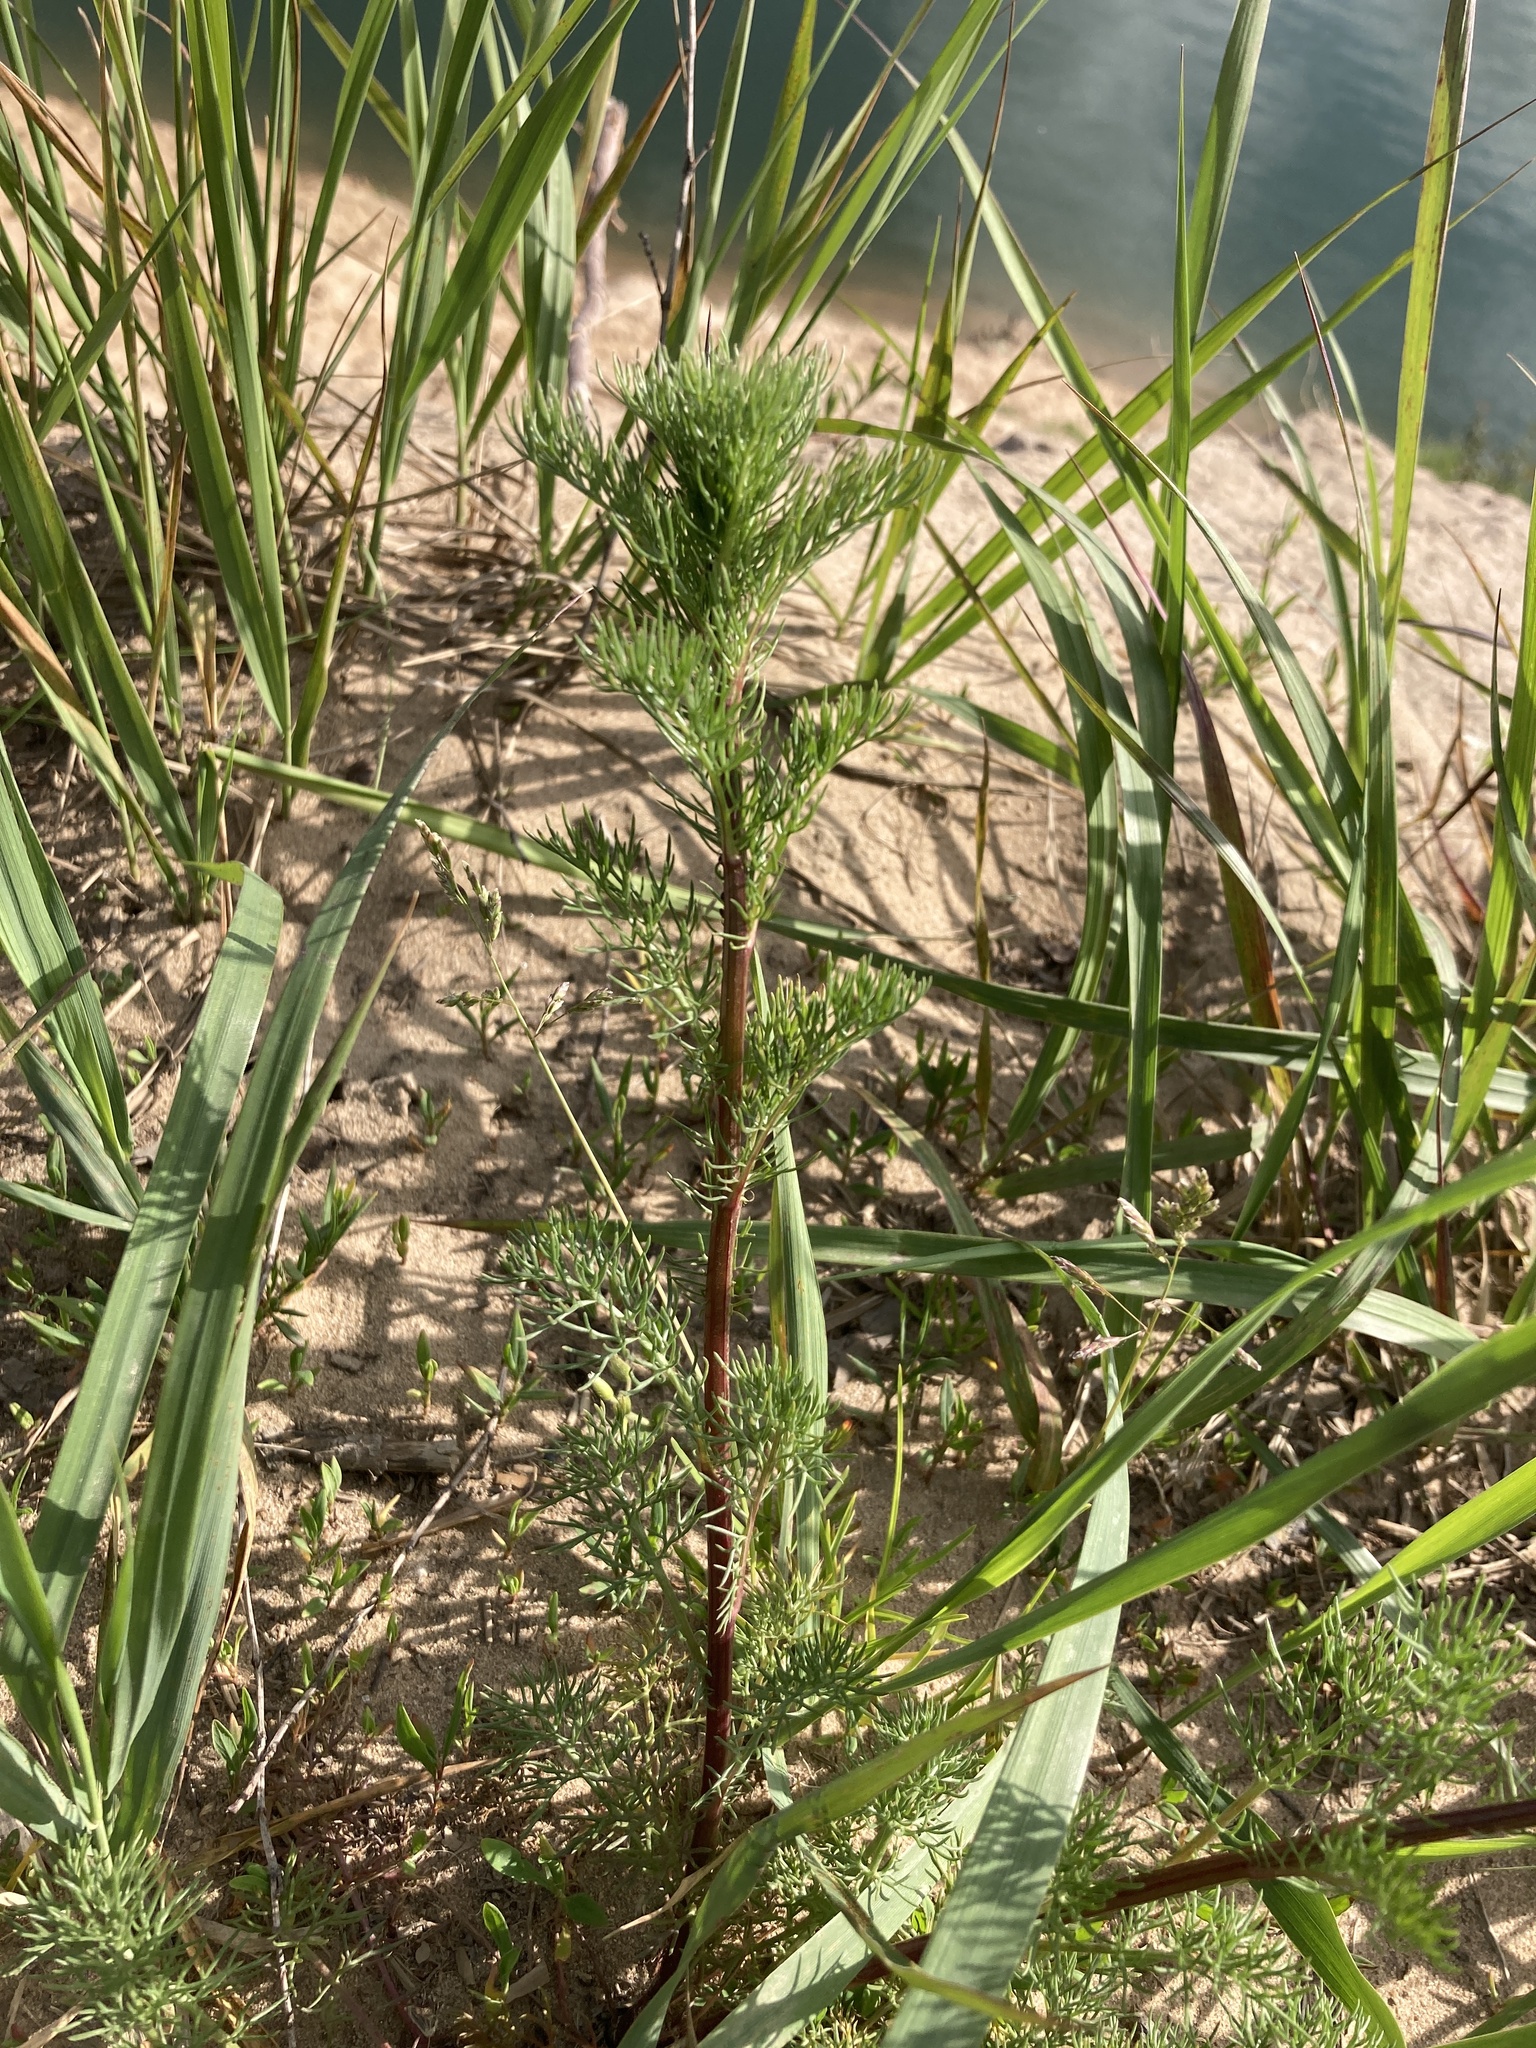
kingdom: Plantae
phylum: Tracheophyta
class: Magnoliopsida
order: Asterales
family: Asteraceae
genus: Tripleurospermum
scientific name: Tripleurospermum inodorum
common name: Scentless mayweed
